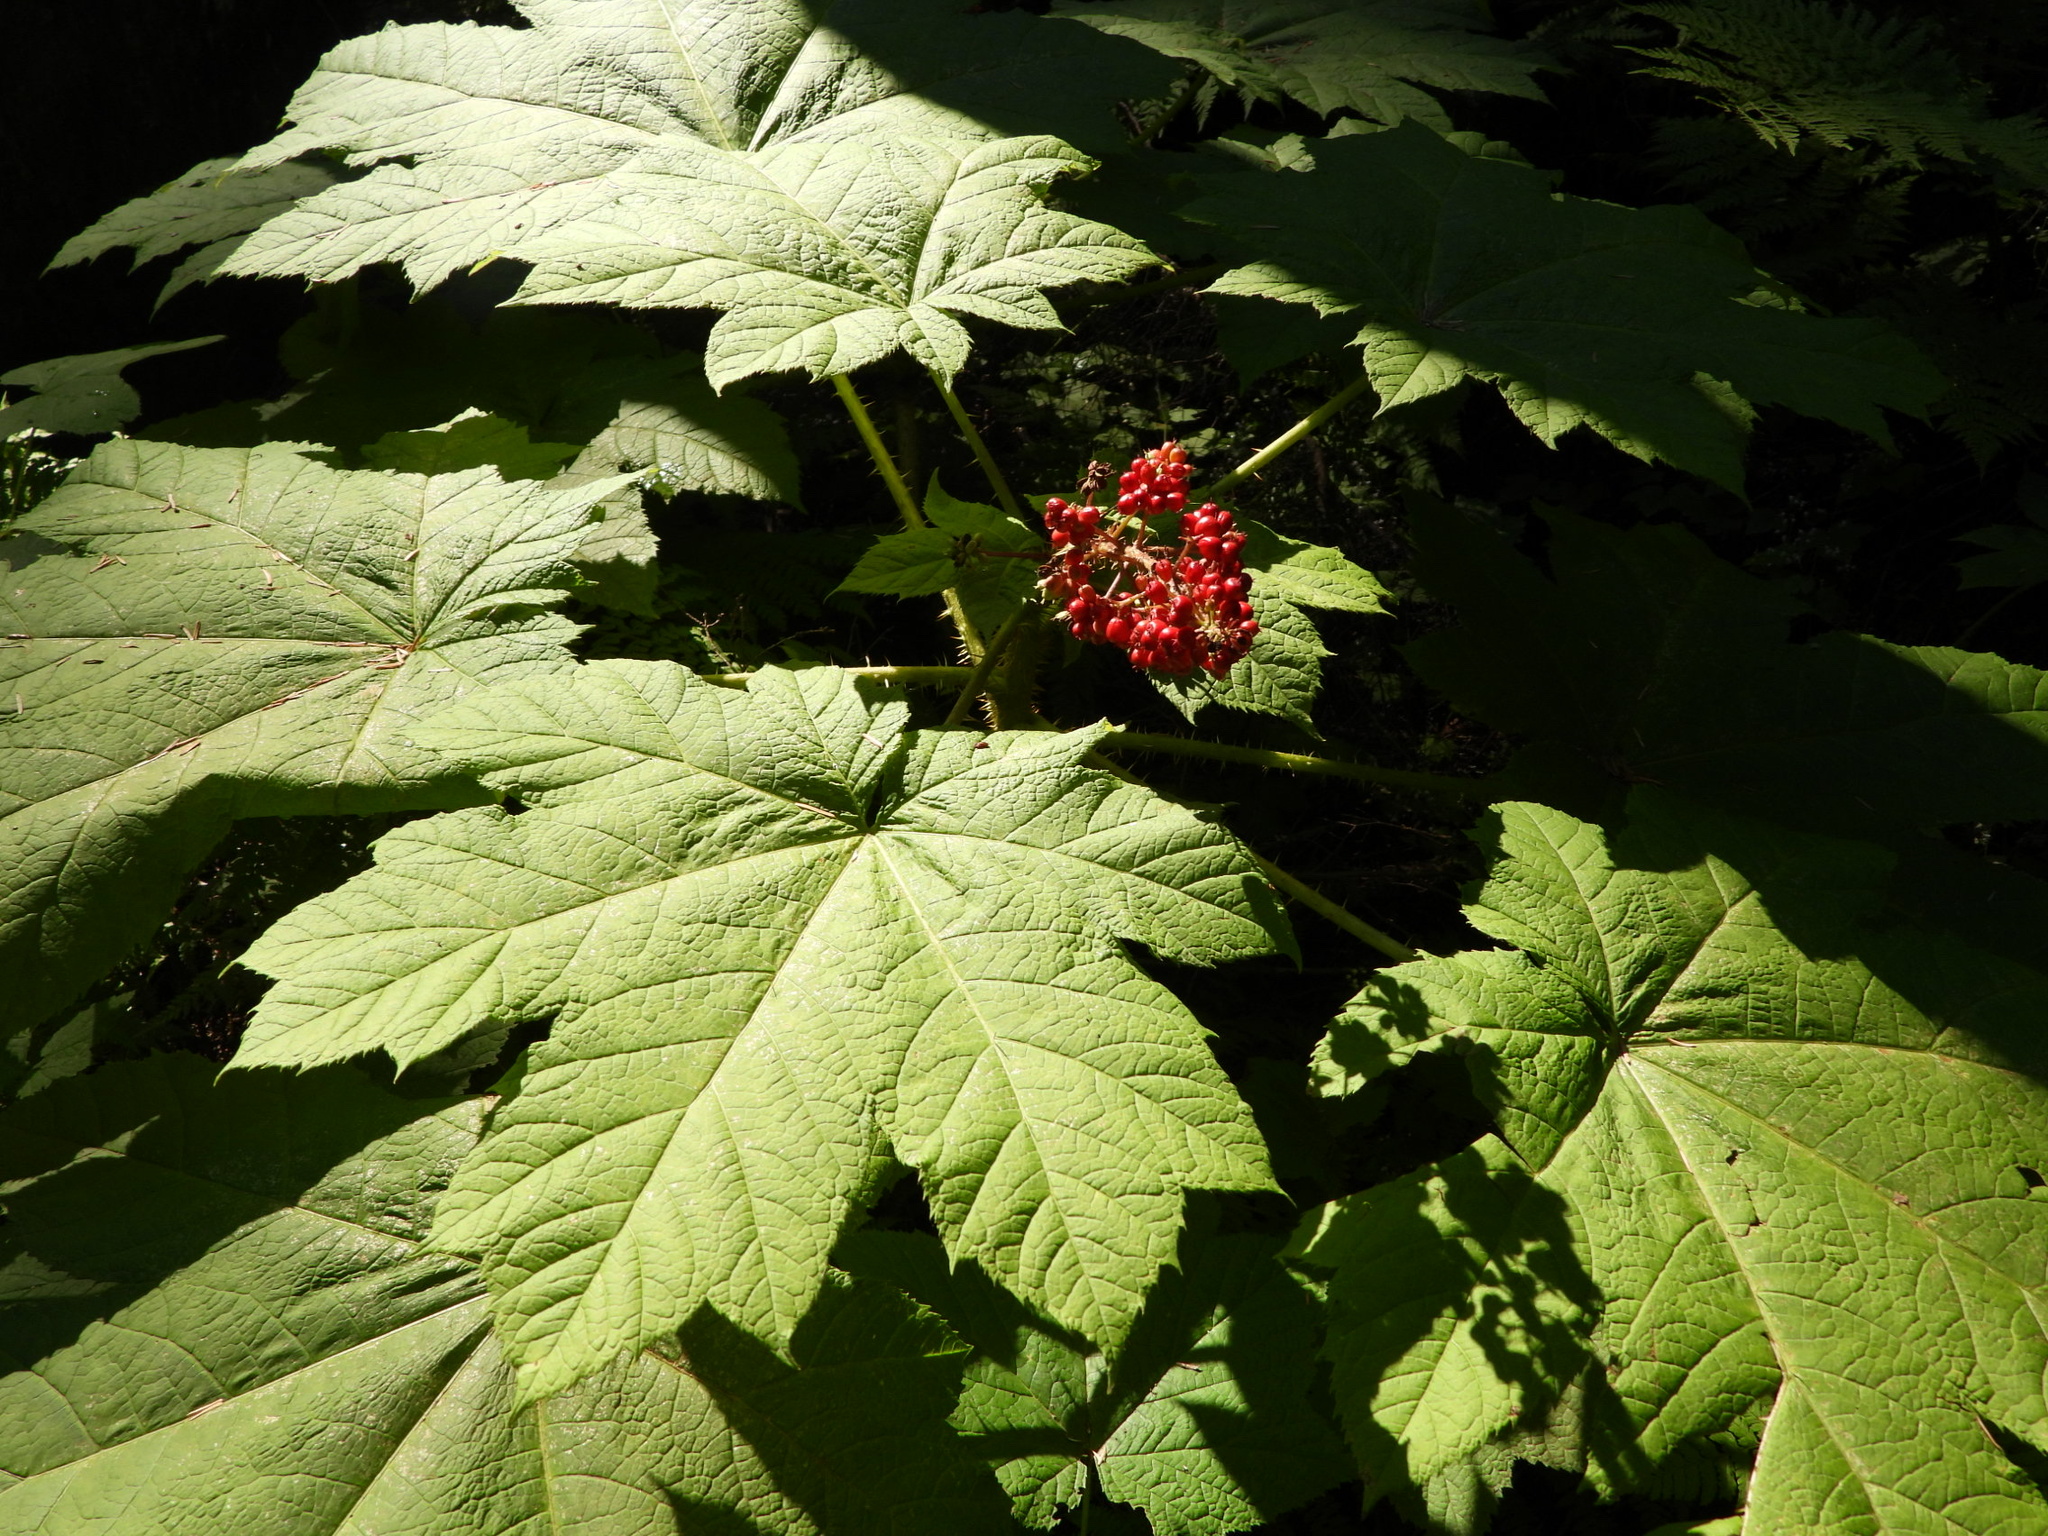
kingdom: Plantae
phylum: Tracheophyta
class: Magnoliopsida
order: Apiales
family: Araliaceae
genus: Oplopanax
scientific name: Oplopanax horridus
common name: Devil's walking-stick
